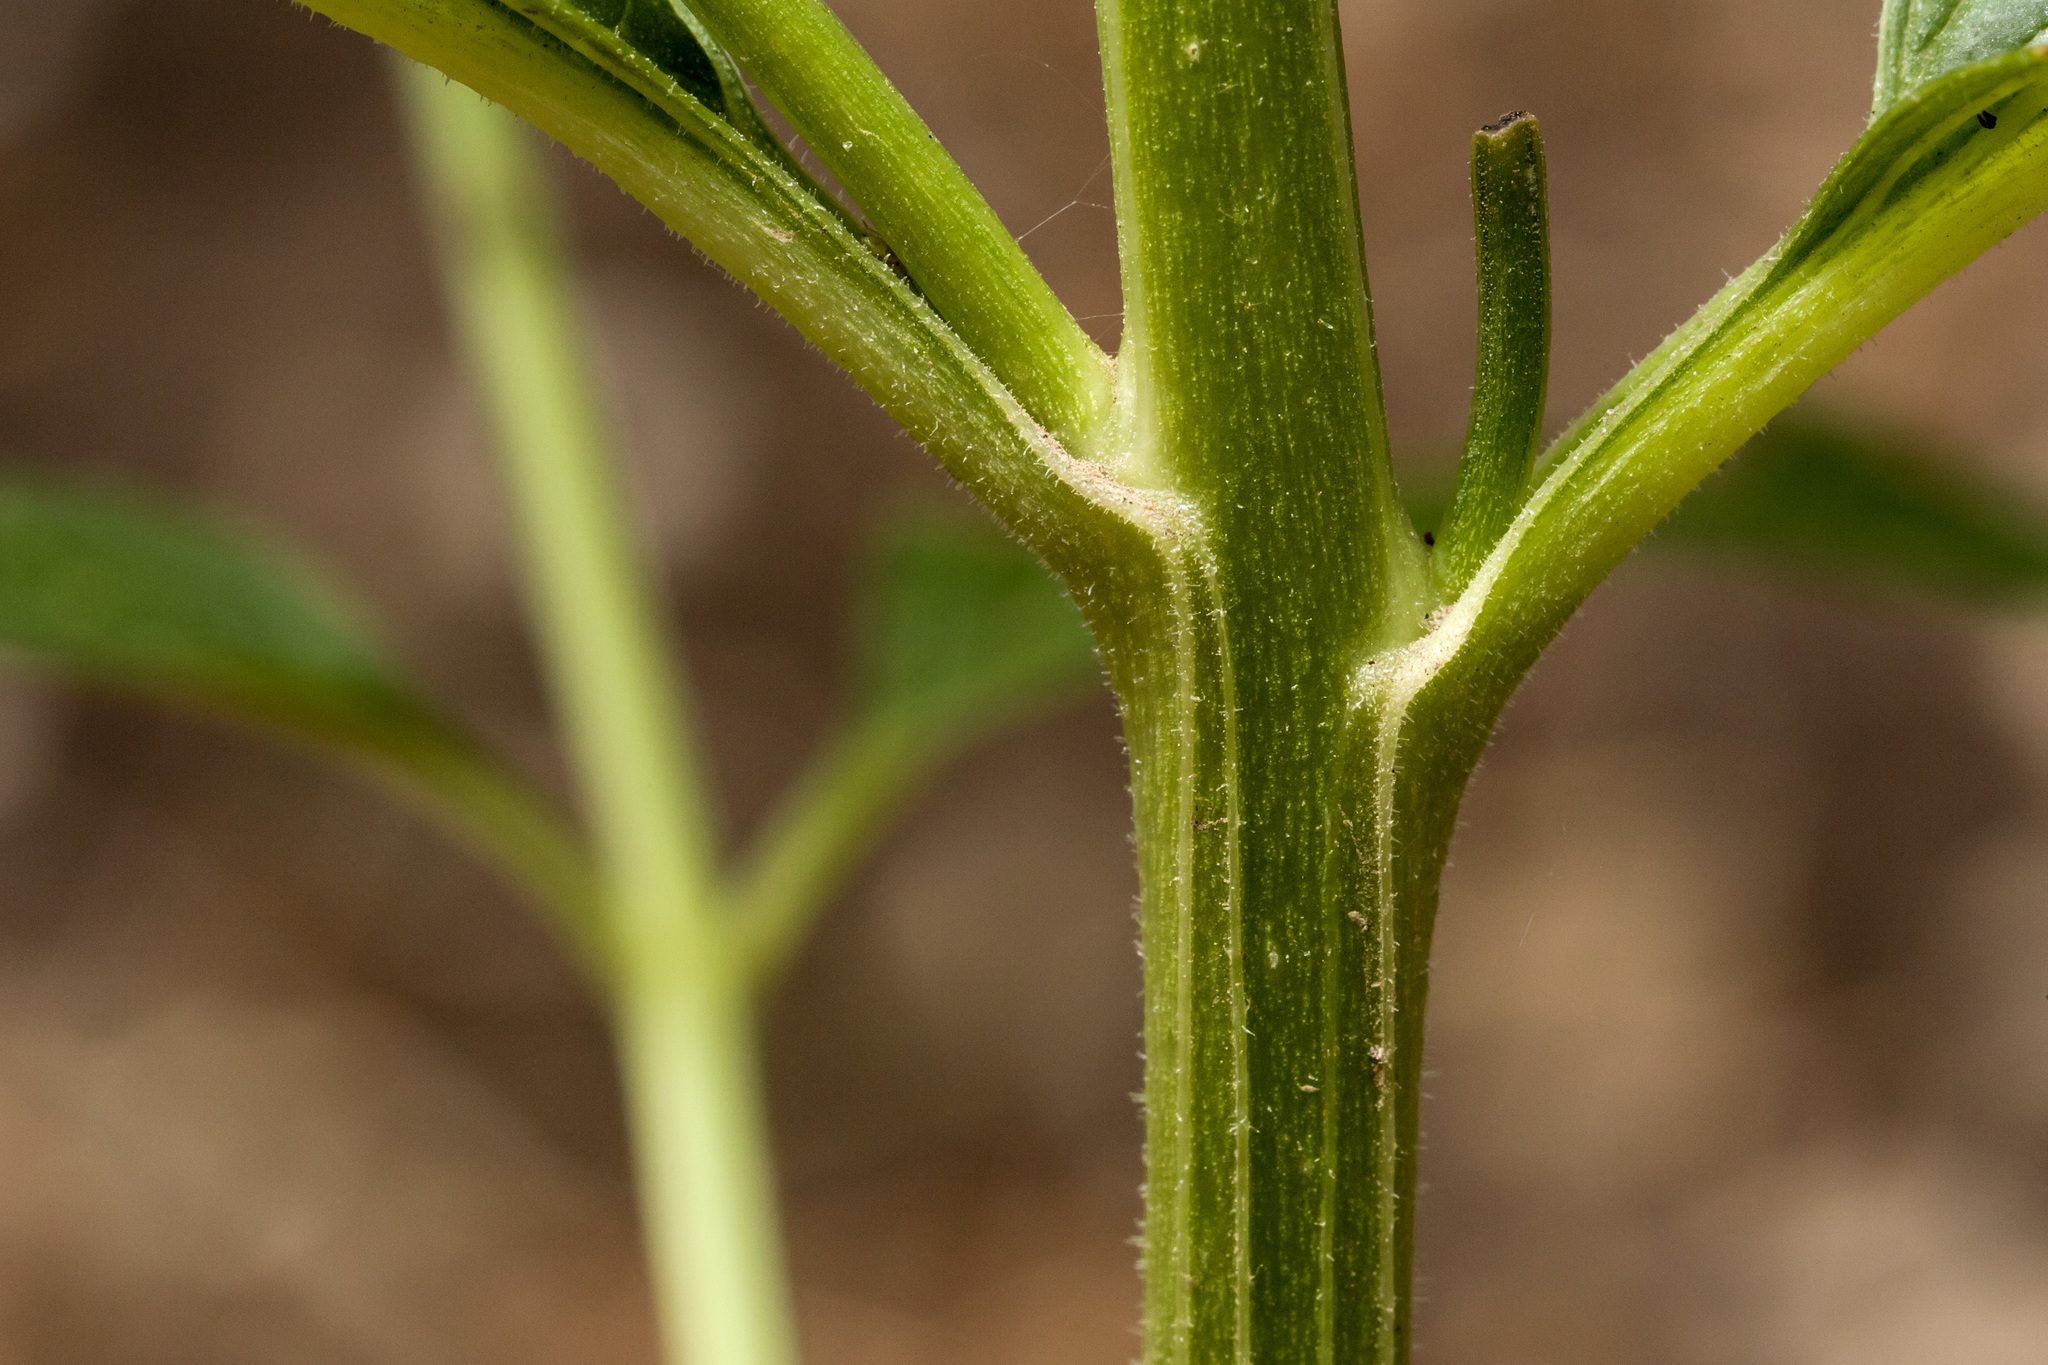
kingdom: Plantae
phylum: Tracheophyta
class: Magnoliopsida
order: Lamiales
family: Scrophulariaceae
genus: Scrophularia
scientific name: Scrophularia montana
